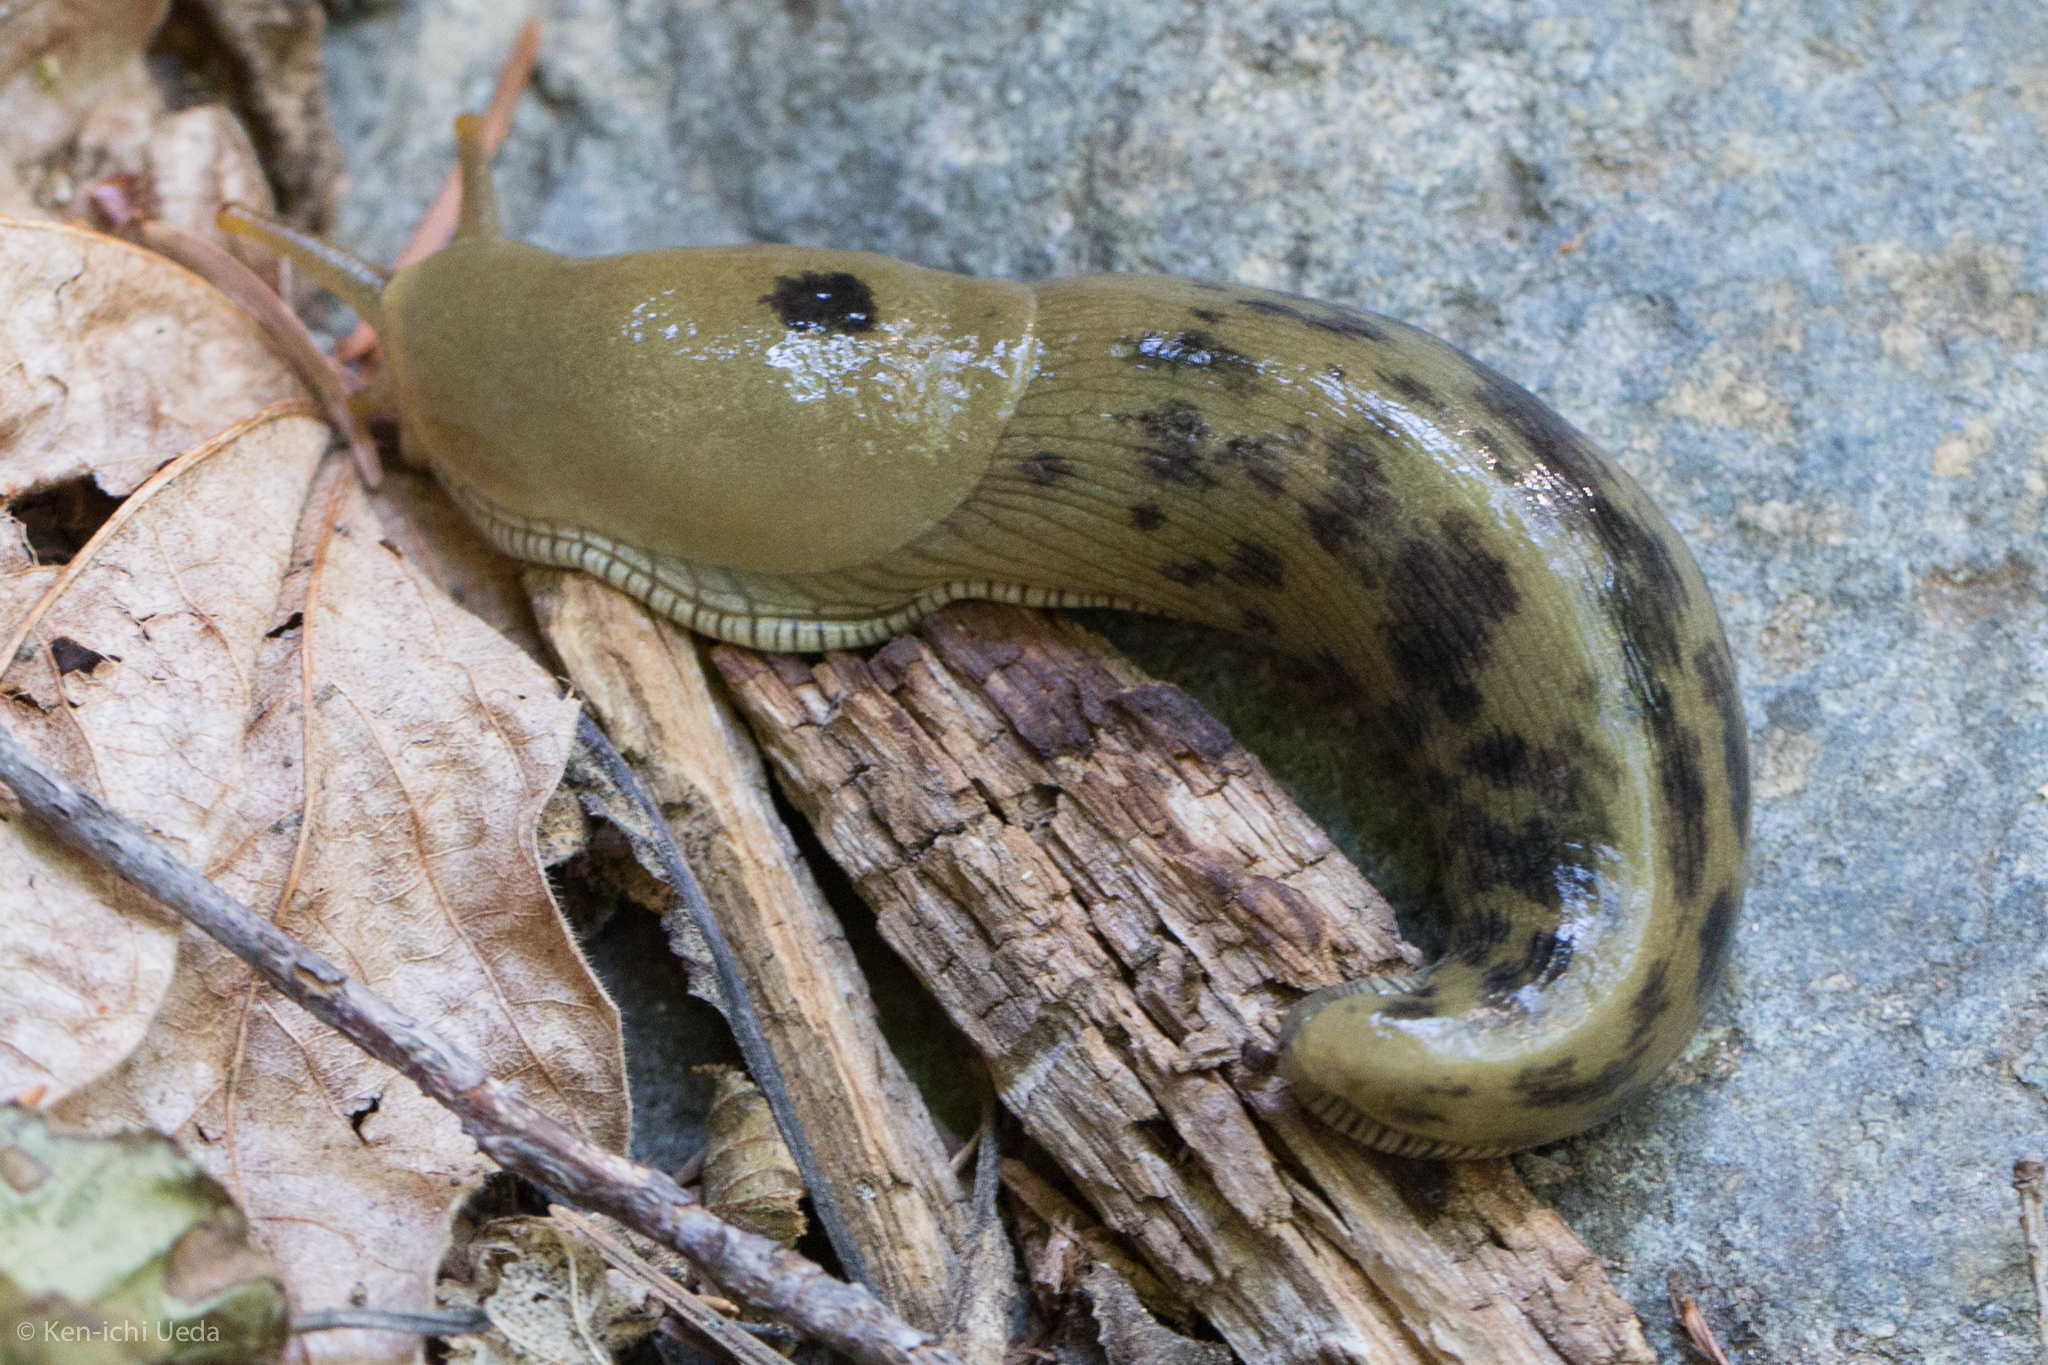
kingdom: Animalia
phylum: Mollusca
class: Gastropoda
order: Stylommatophora
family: Ariolimacidae
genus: Ariolimax
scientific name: Ariolimax buttoni
